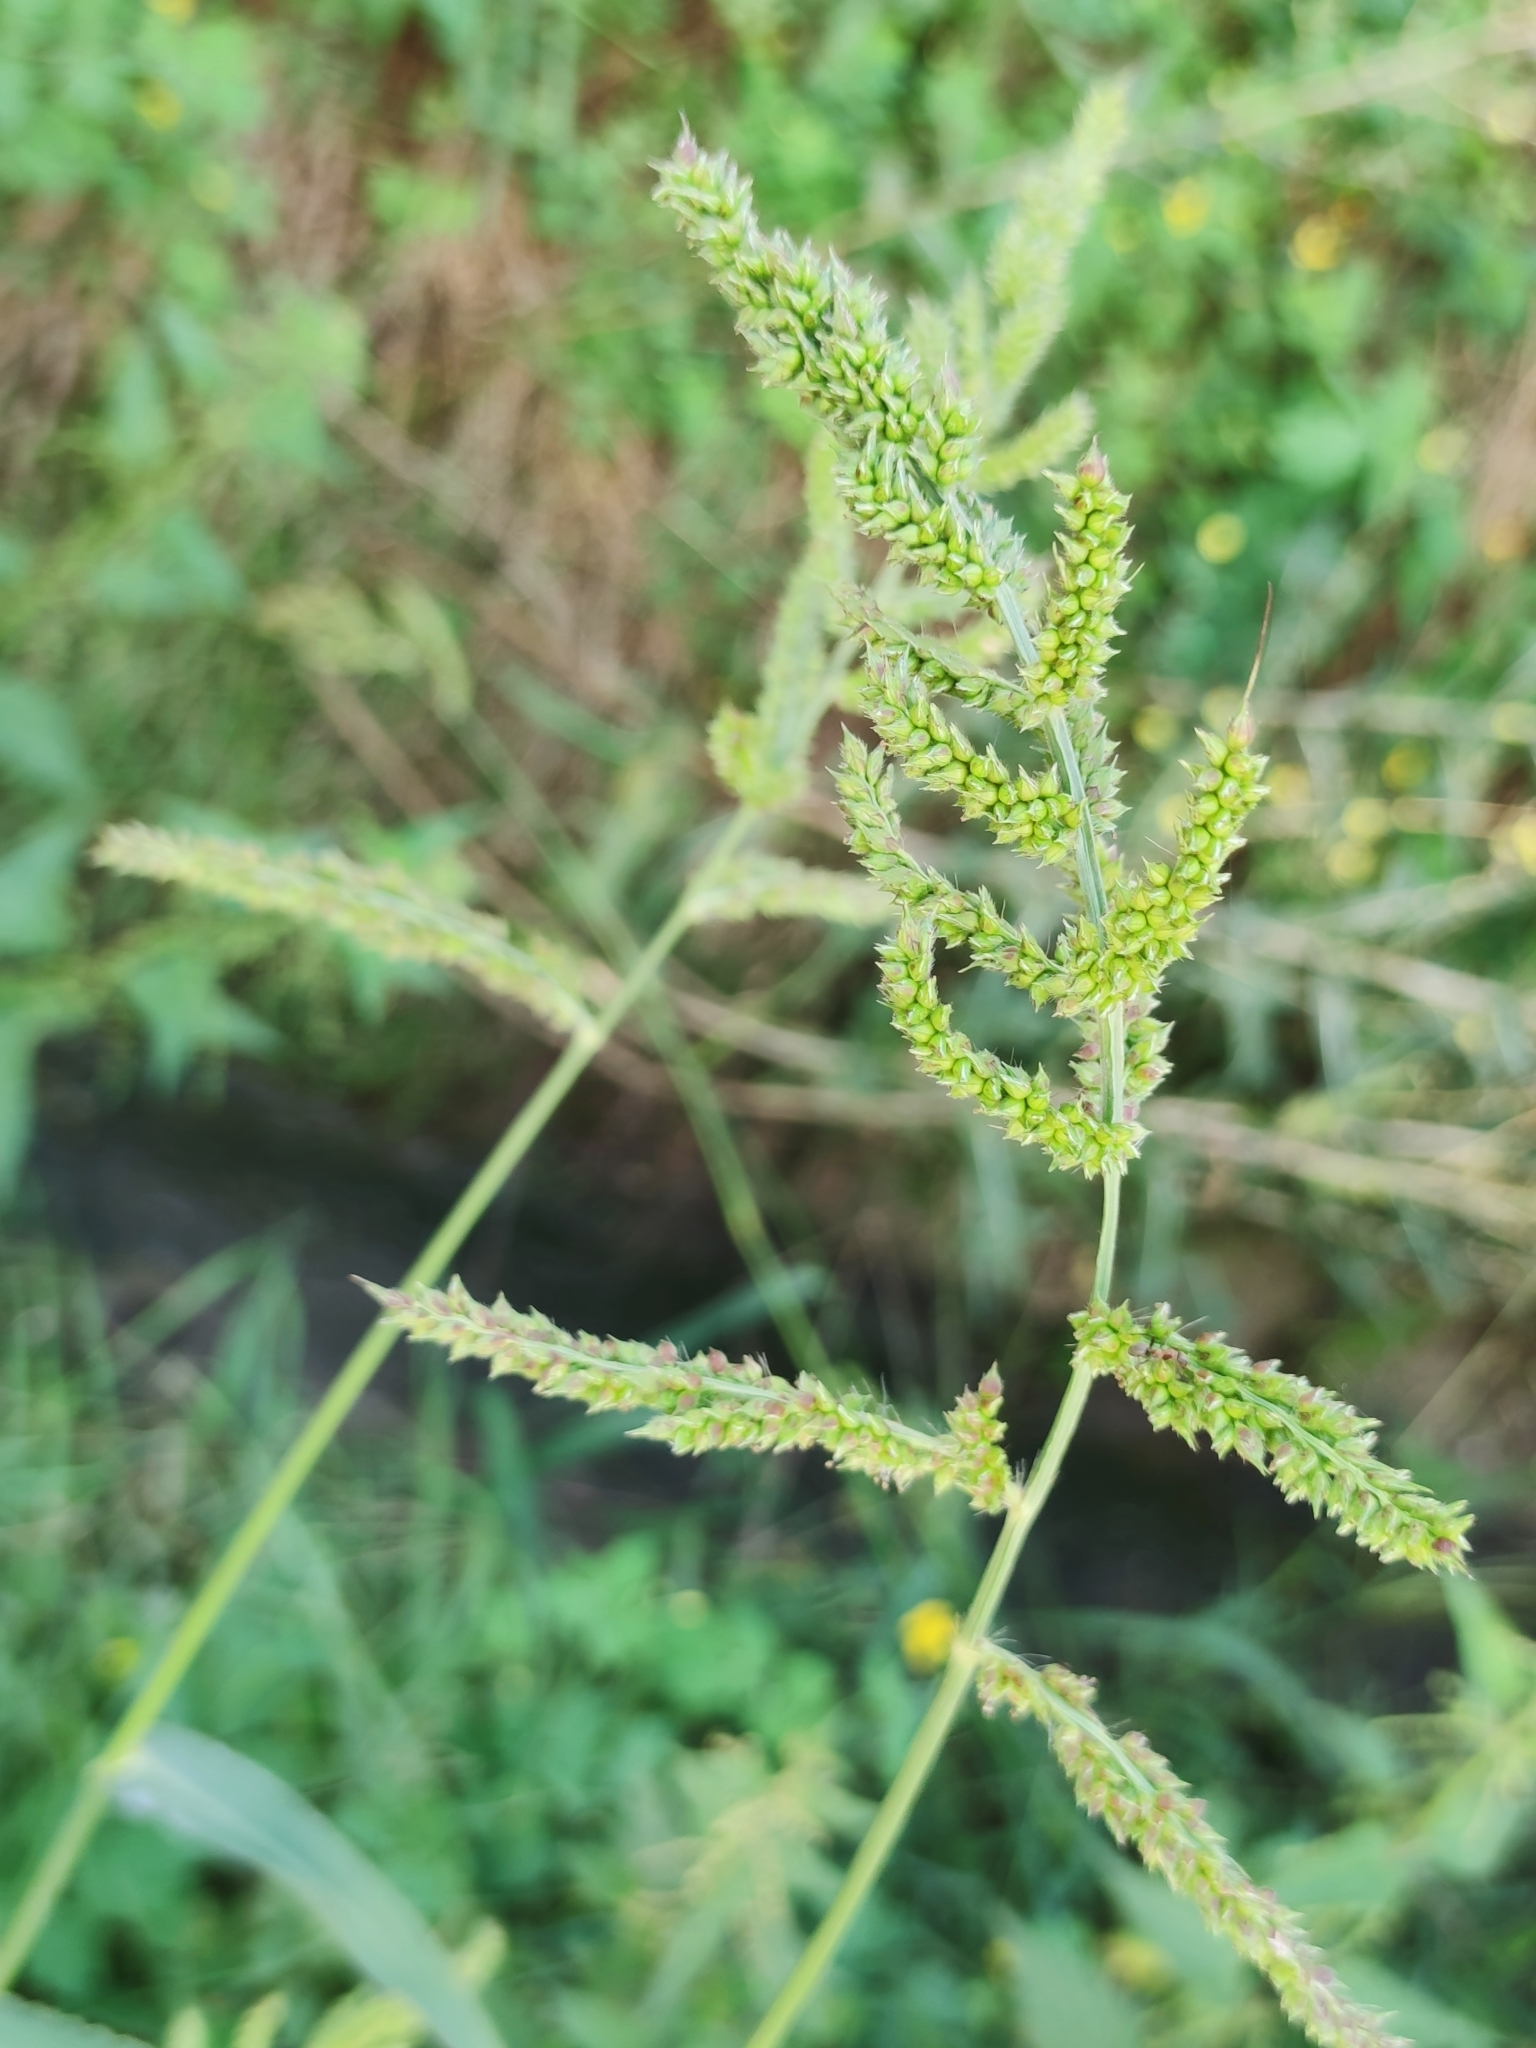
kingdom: Plantae
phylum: Tracheophyta
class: Liliopsida
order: Poales
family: Poaceae
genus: Echinochloa
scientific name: Echinochloa crus-galli
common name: Cockspur
